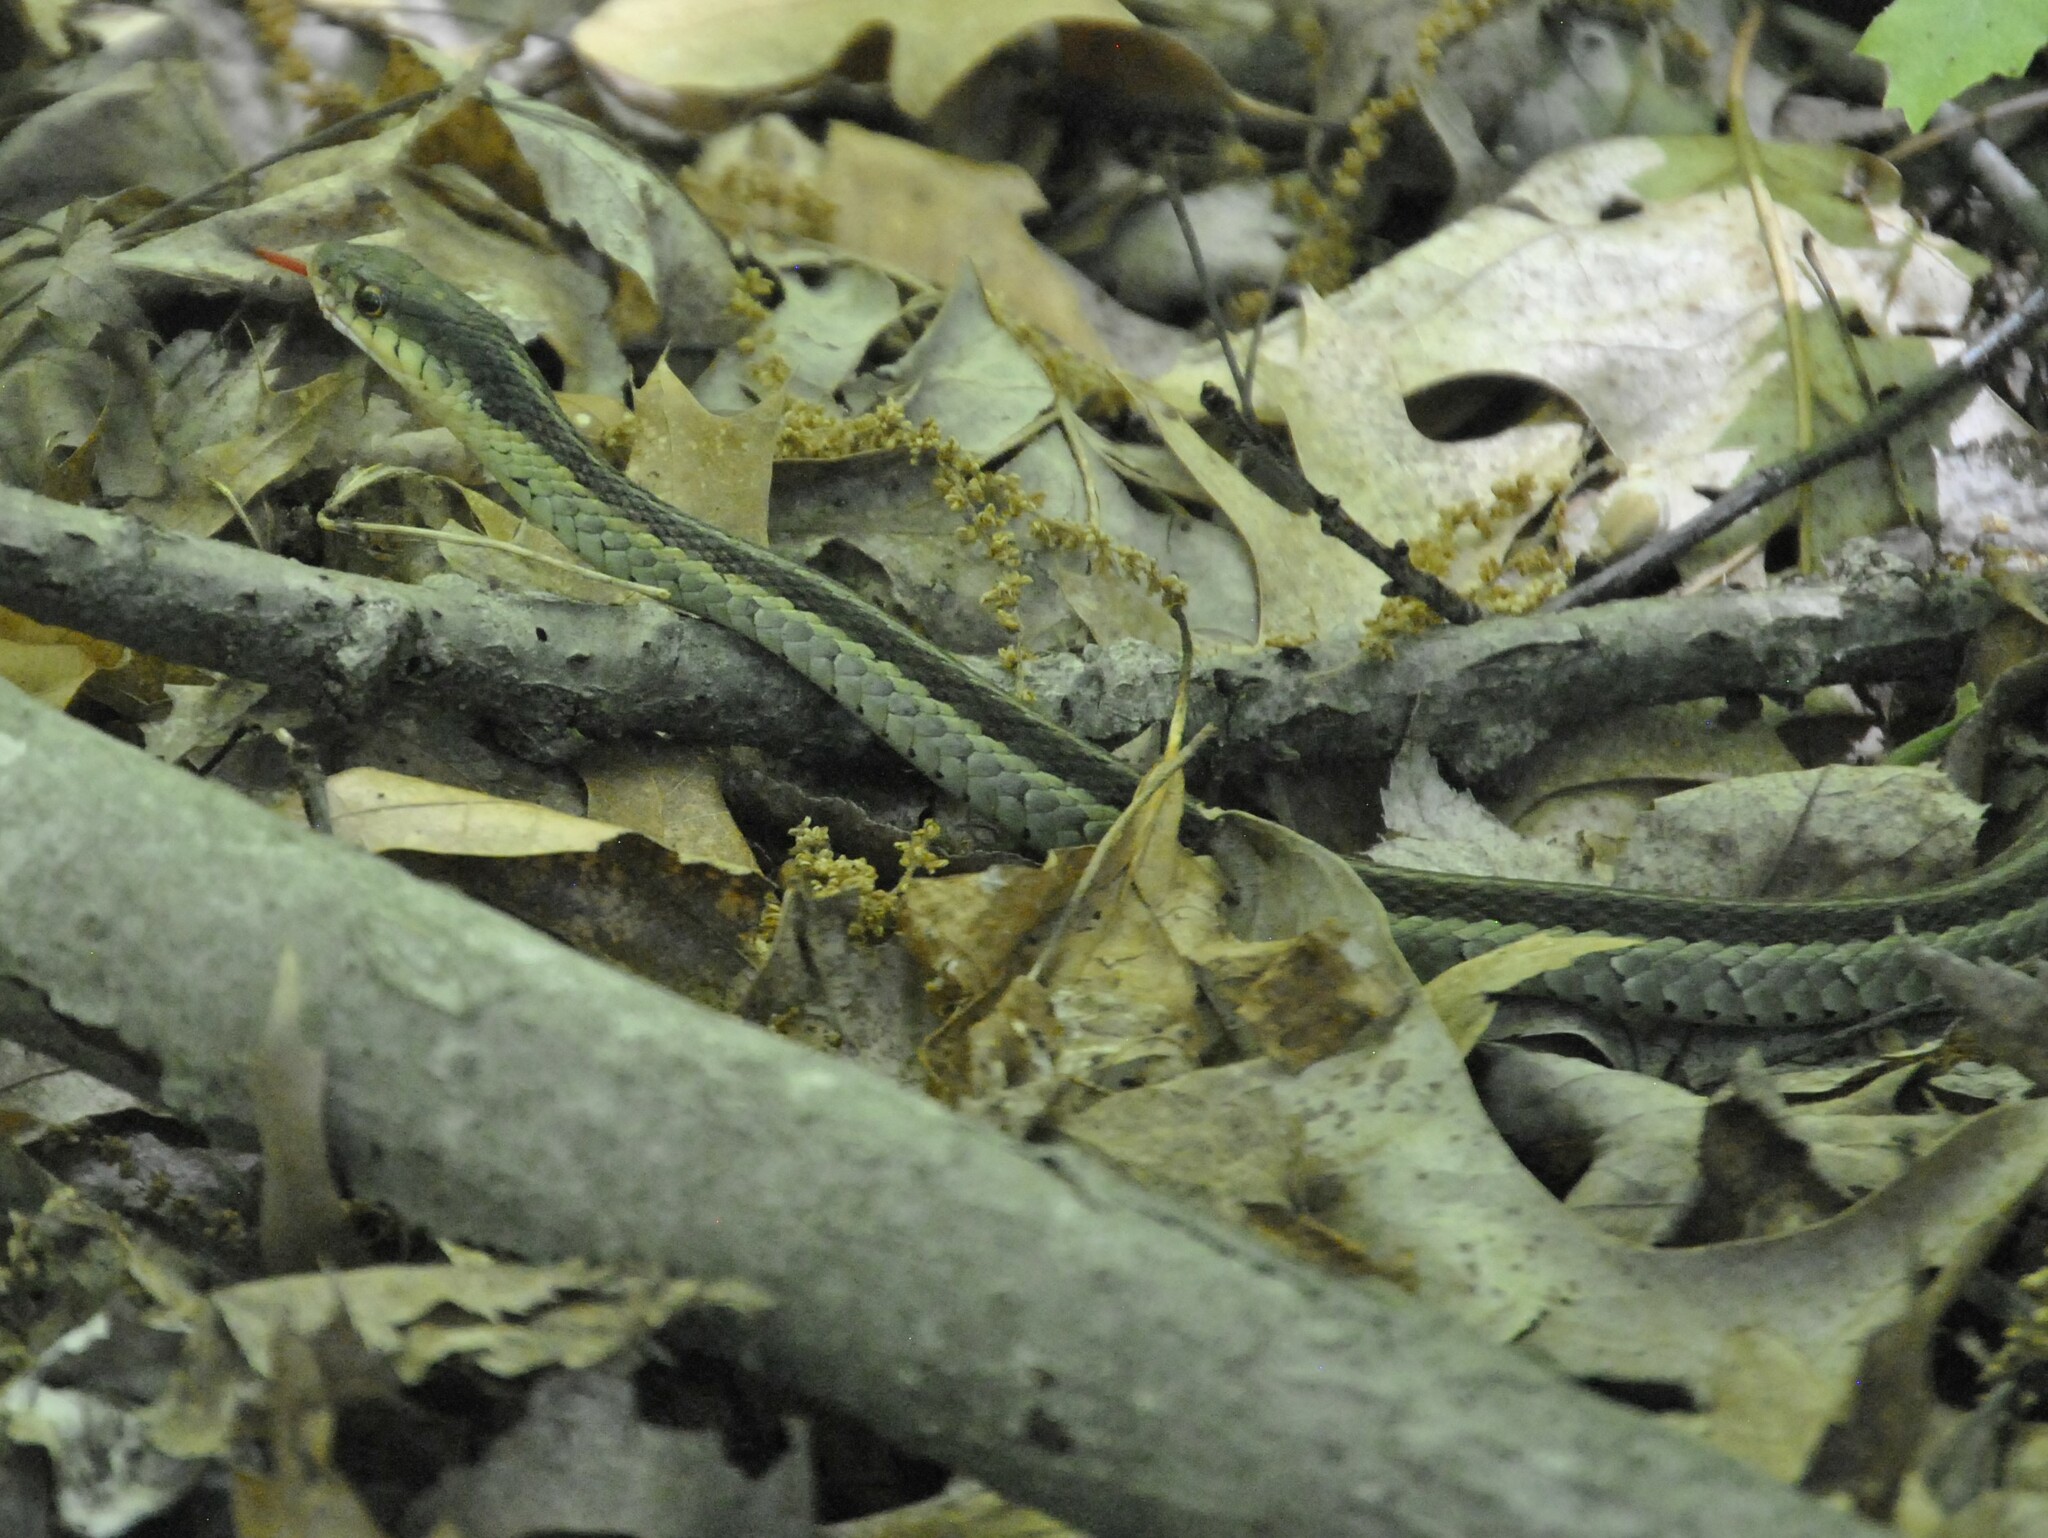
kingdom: Animalia
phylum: Chordata
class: Squamata
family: Colubridae
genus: Thamnophis
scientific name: Thamnophis sirtalis
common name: Common garter snake
